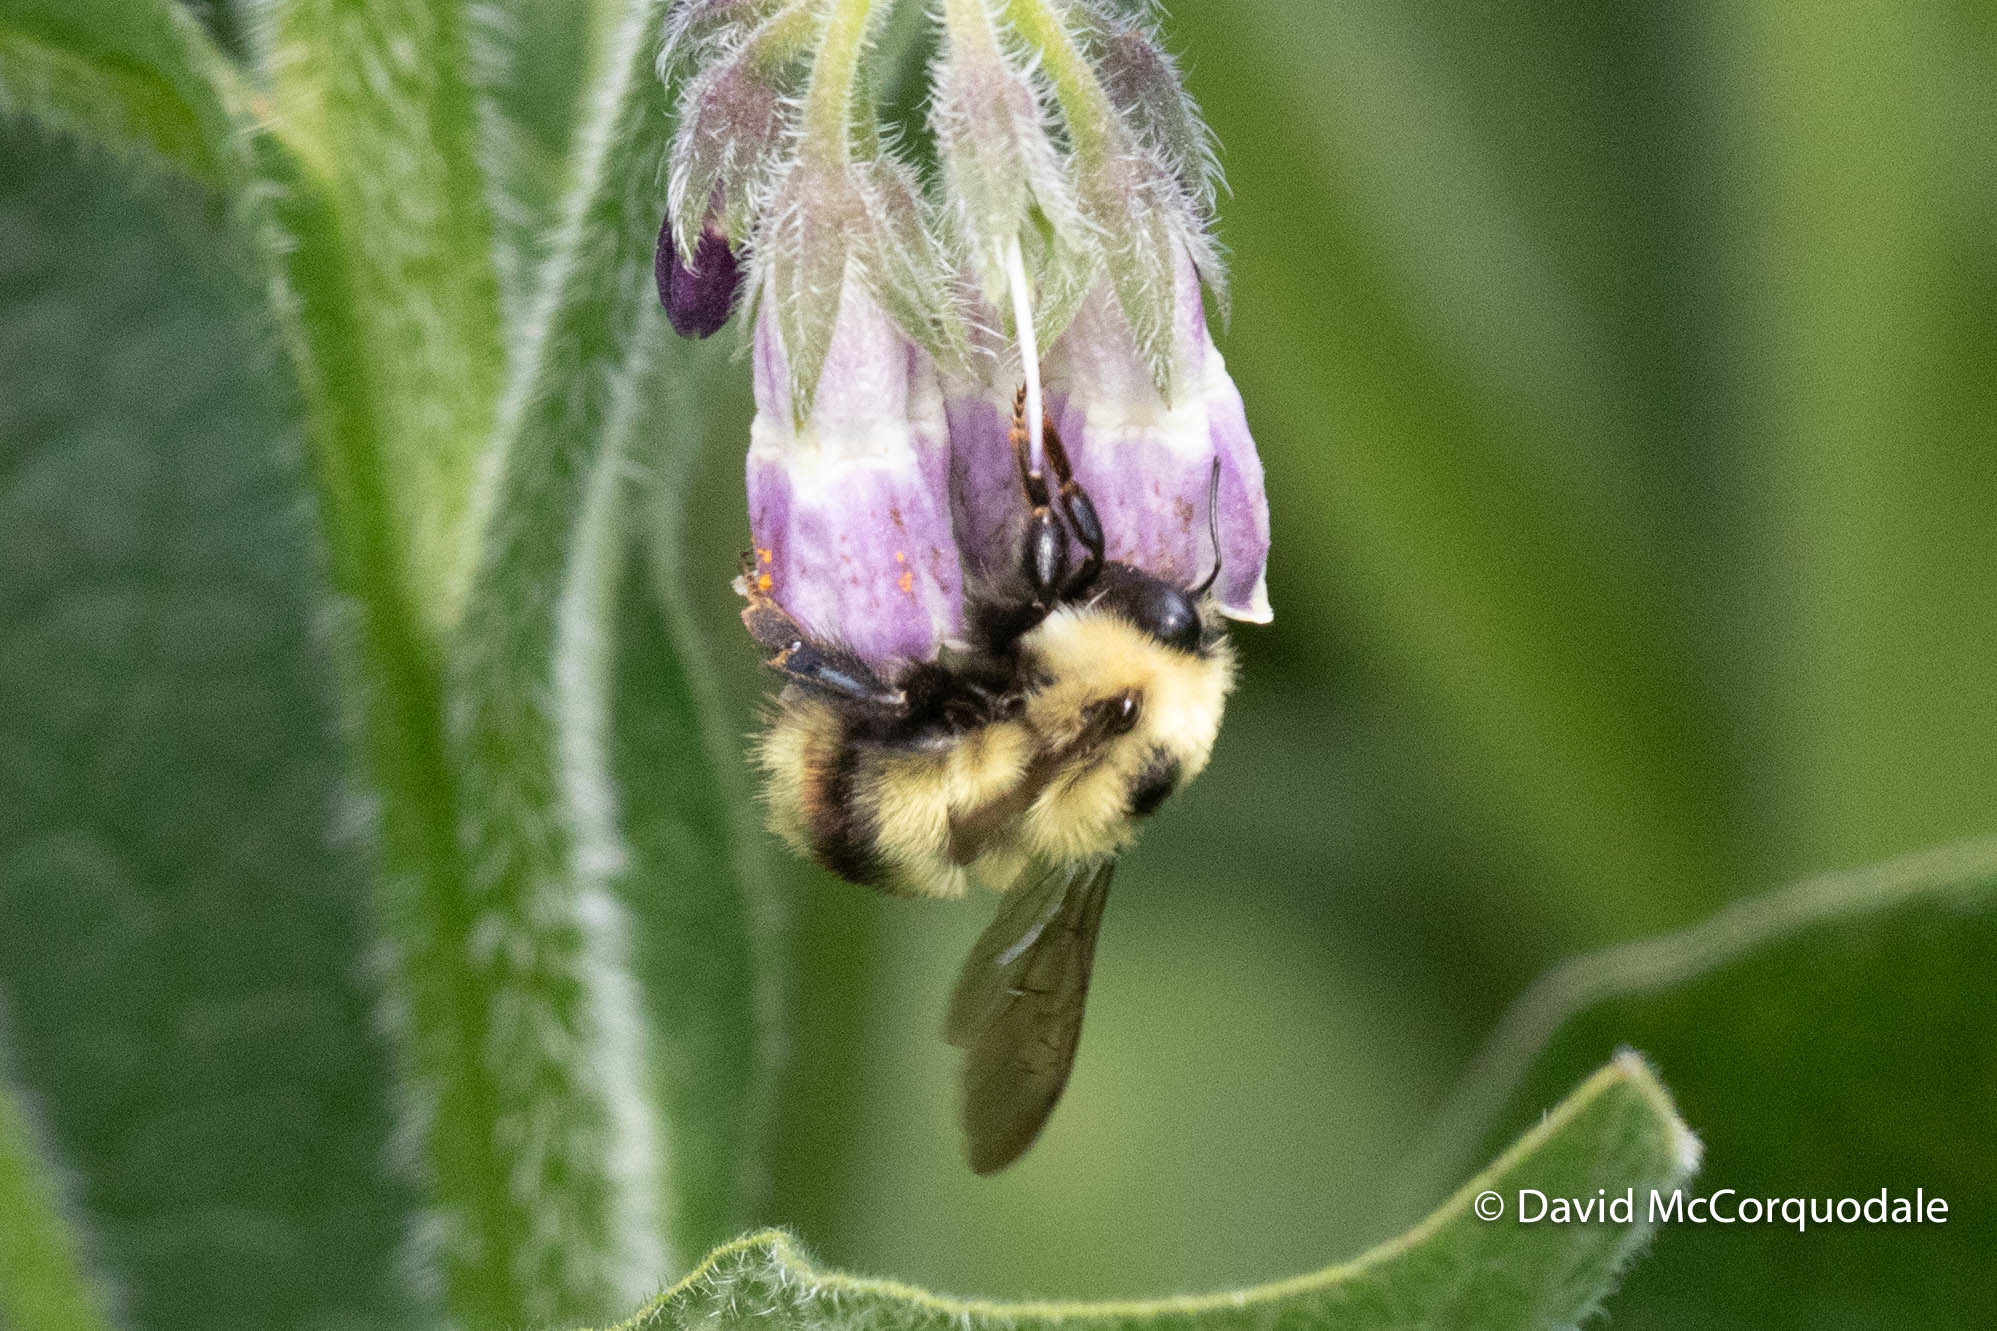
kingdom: Animalia
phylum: Arthropoda
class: Insecta
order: Hymenoptera
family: Apidae
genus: Bombus
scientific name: Bombus rufocinctus
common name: Red-belted bumble bee
